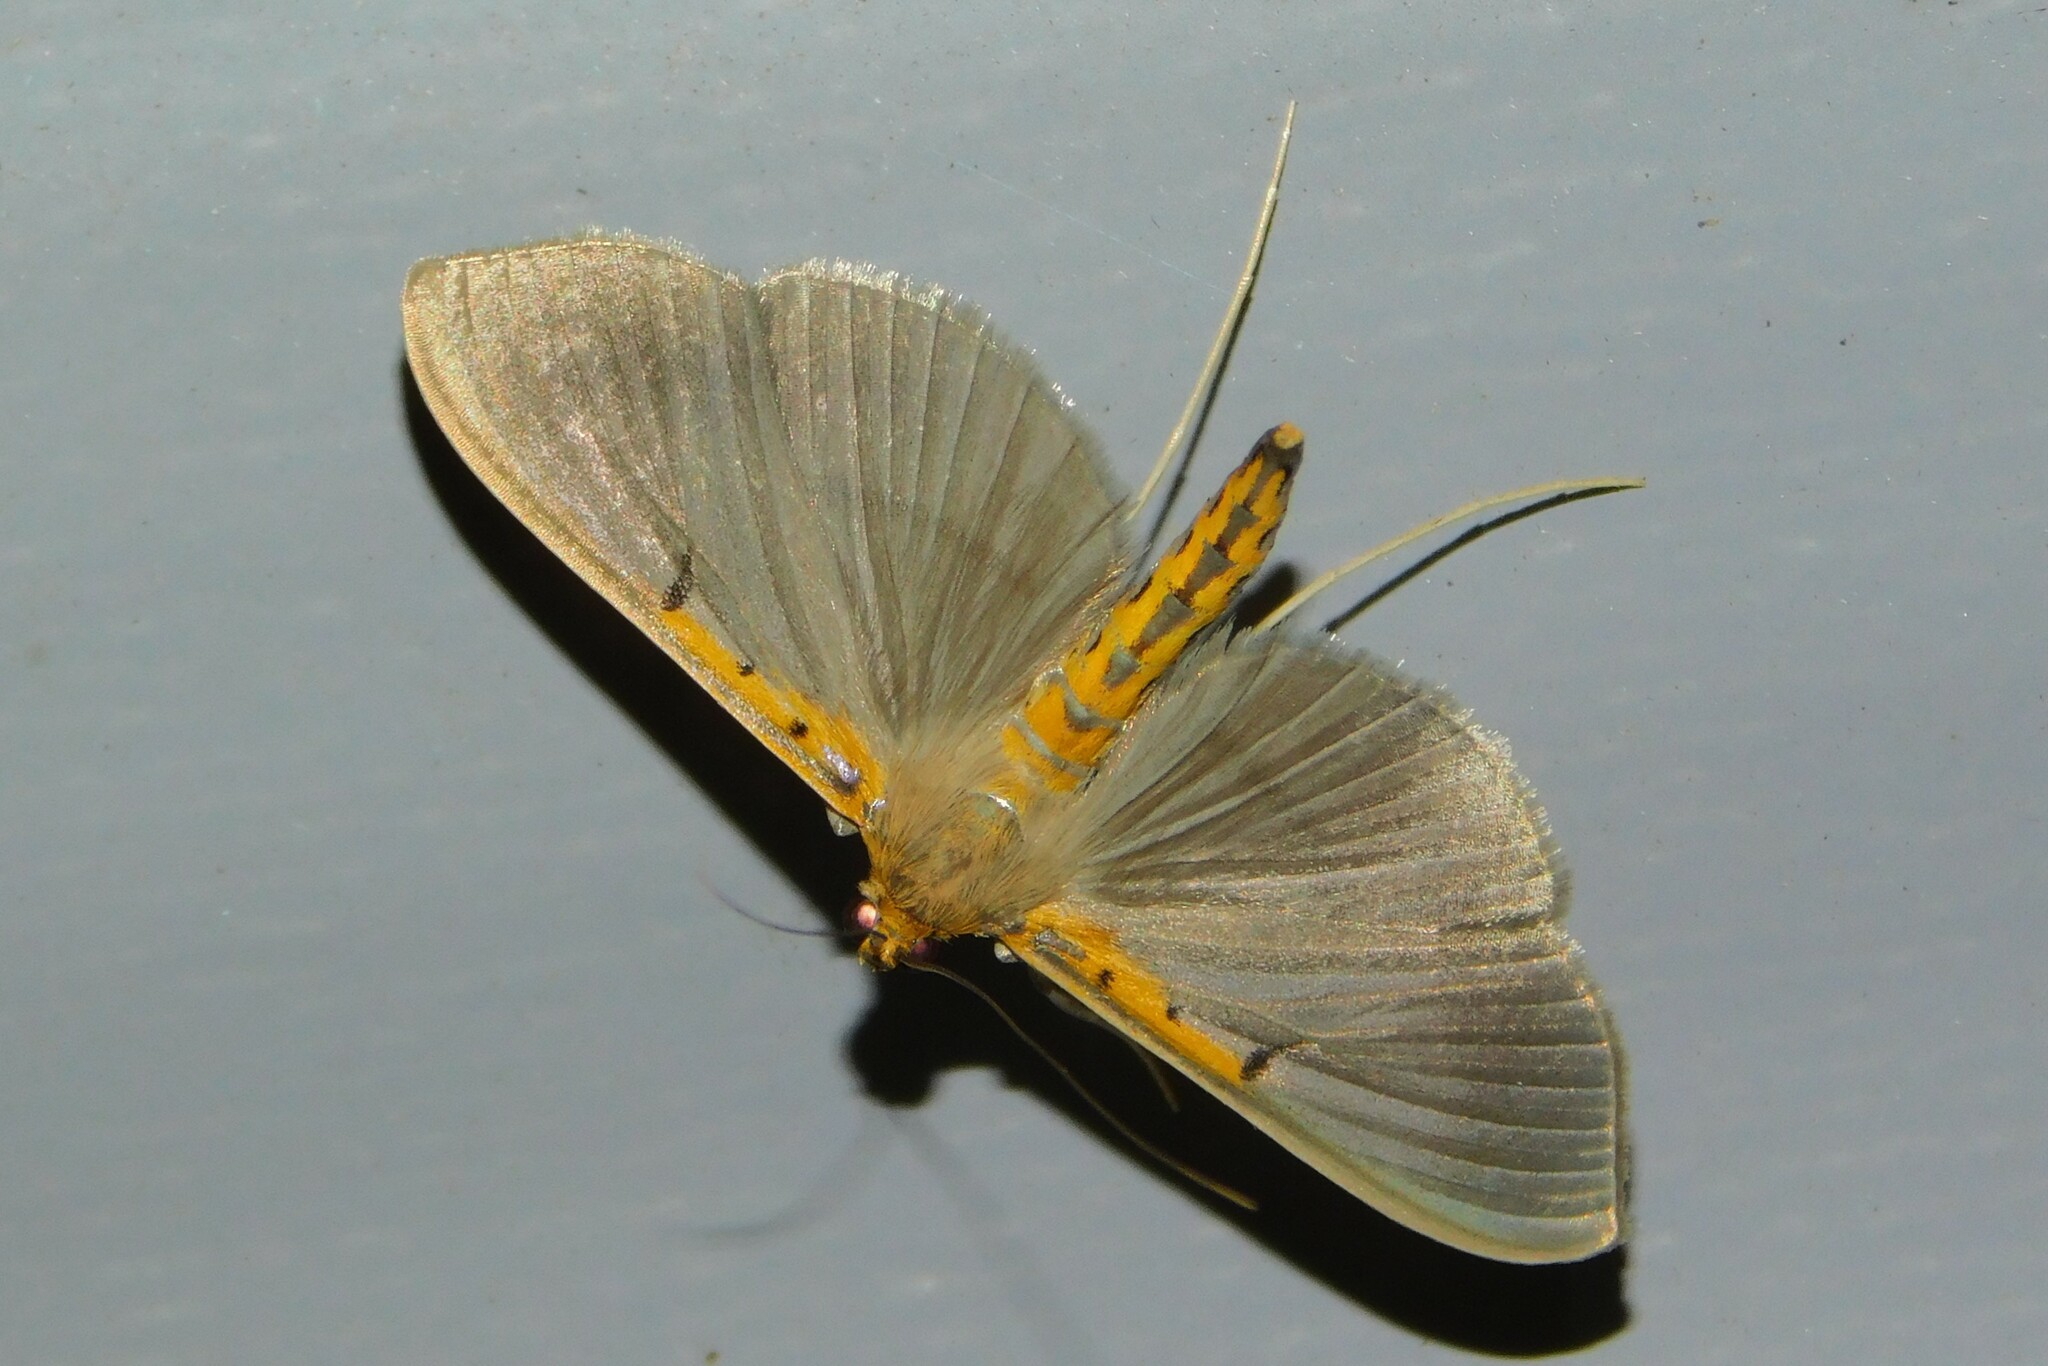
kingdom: Animalia
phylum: Arthropoda
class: Insecta
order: Lepidoptera
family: Crambidae
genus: Filodes
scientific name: Filodes costivitralis
